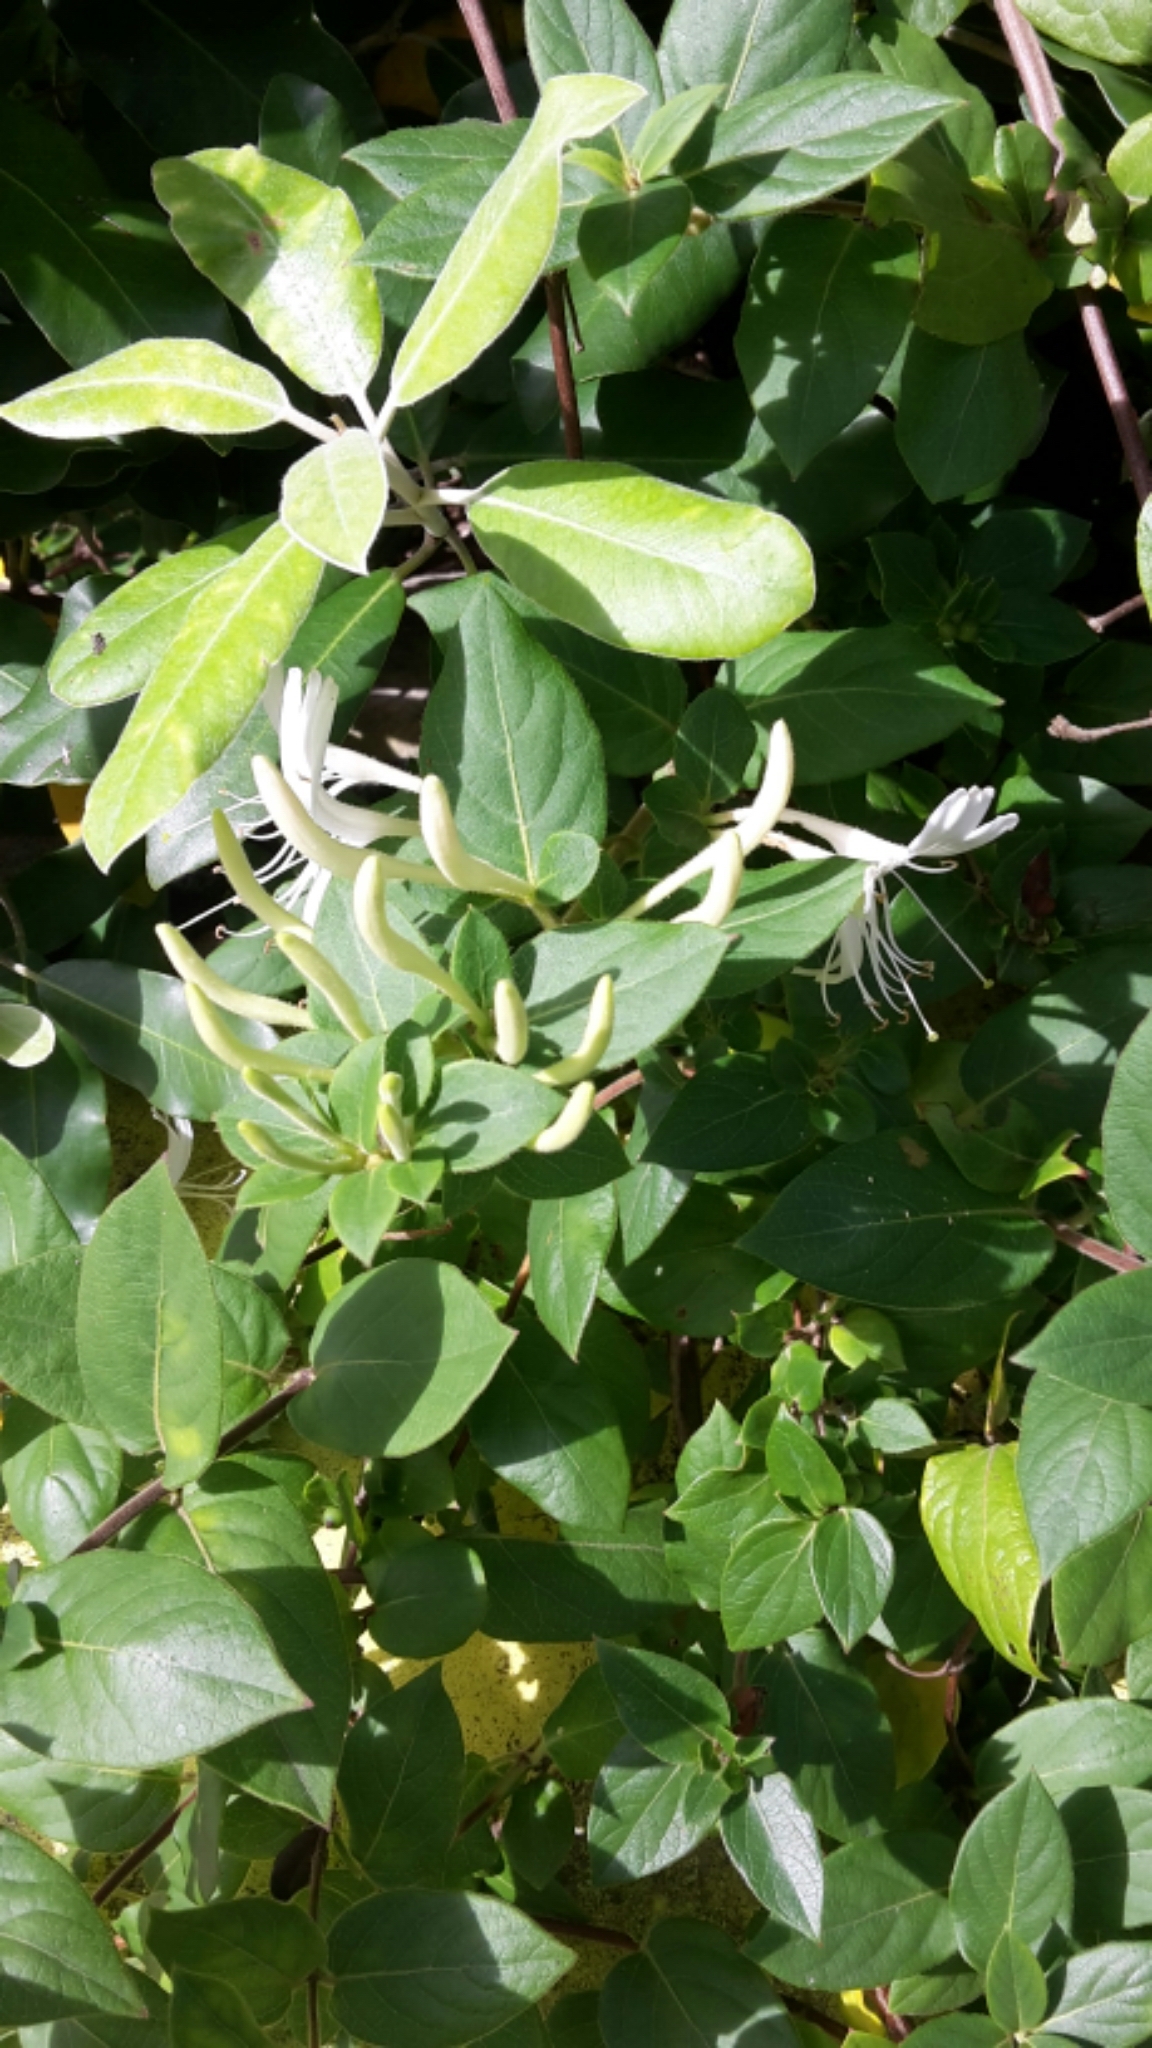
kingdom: Plantae
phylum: Tracheophyta
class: Magnoliopsida
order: Dipsacales
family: Caprifoliaceae
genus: Lonicera
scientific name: Lonicera japonica
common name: Japanese honeysuckle
